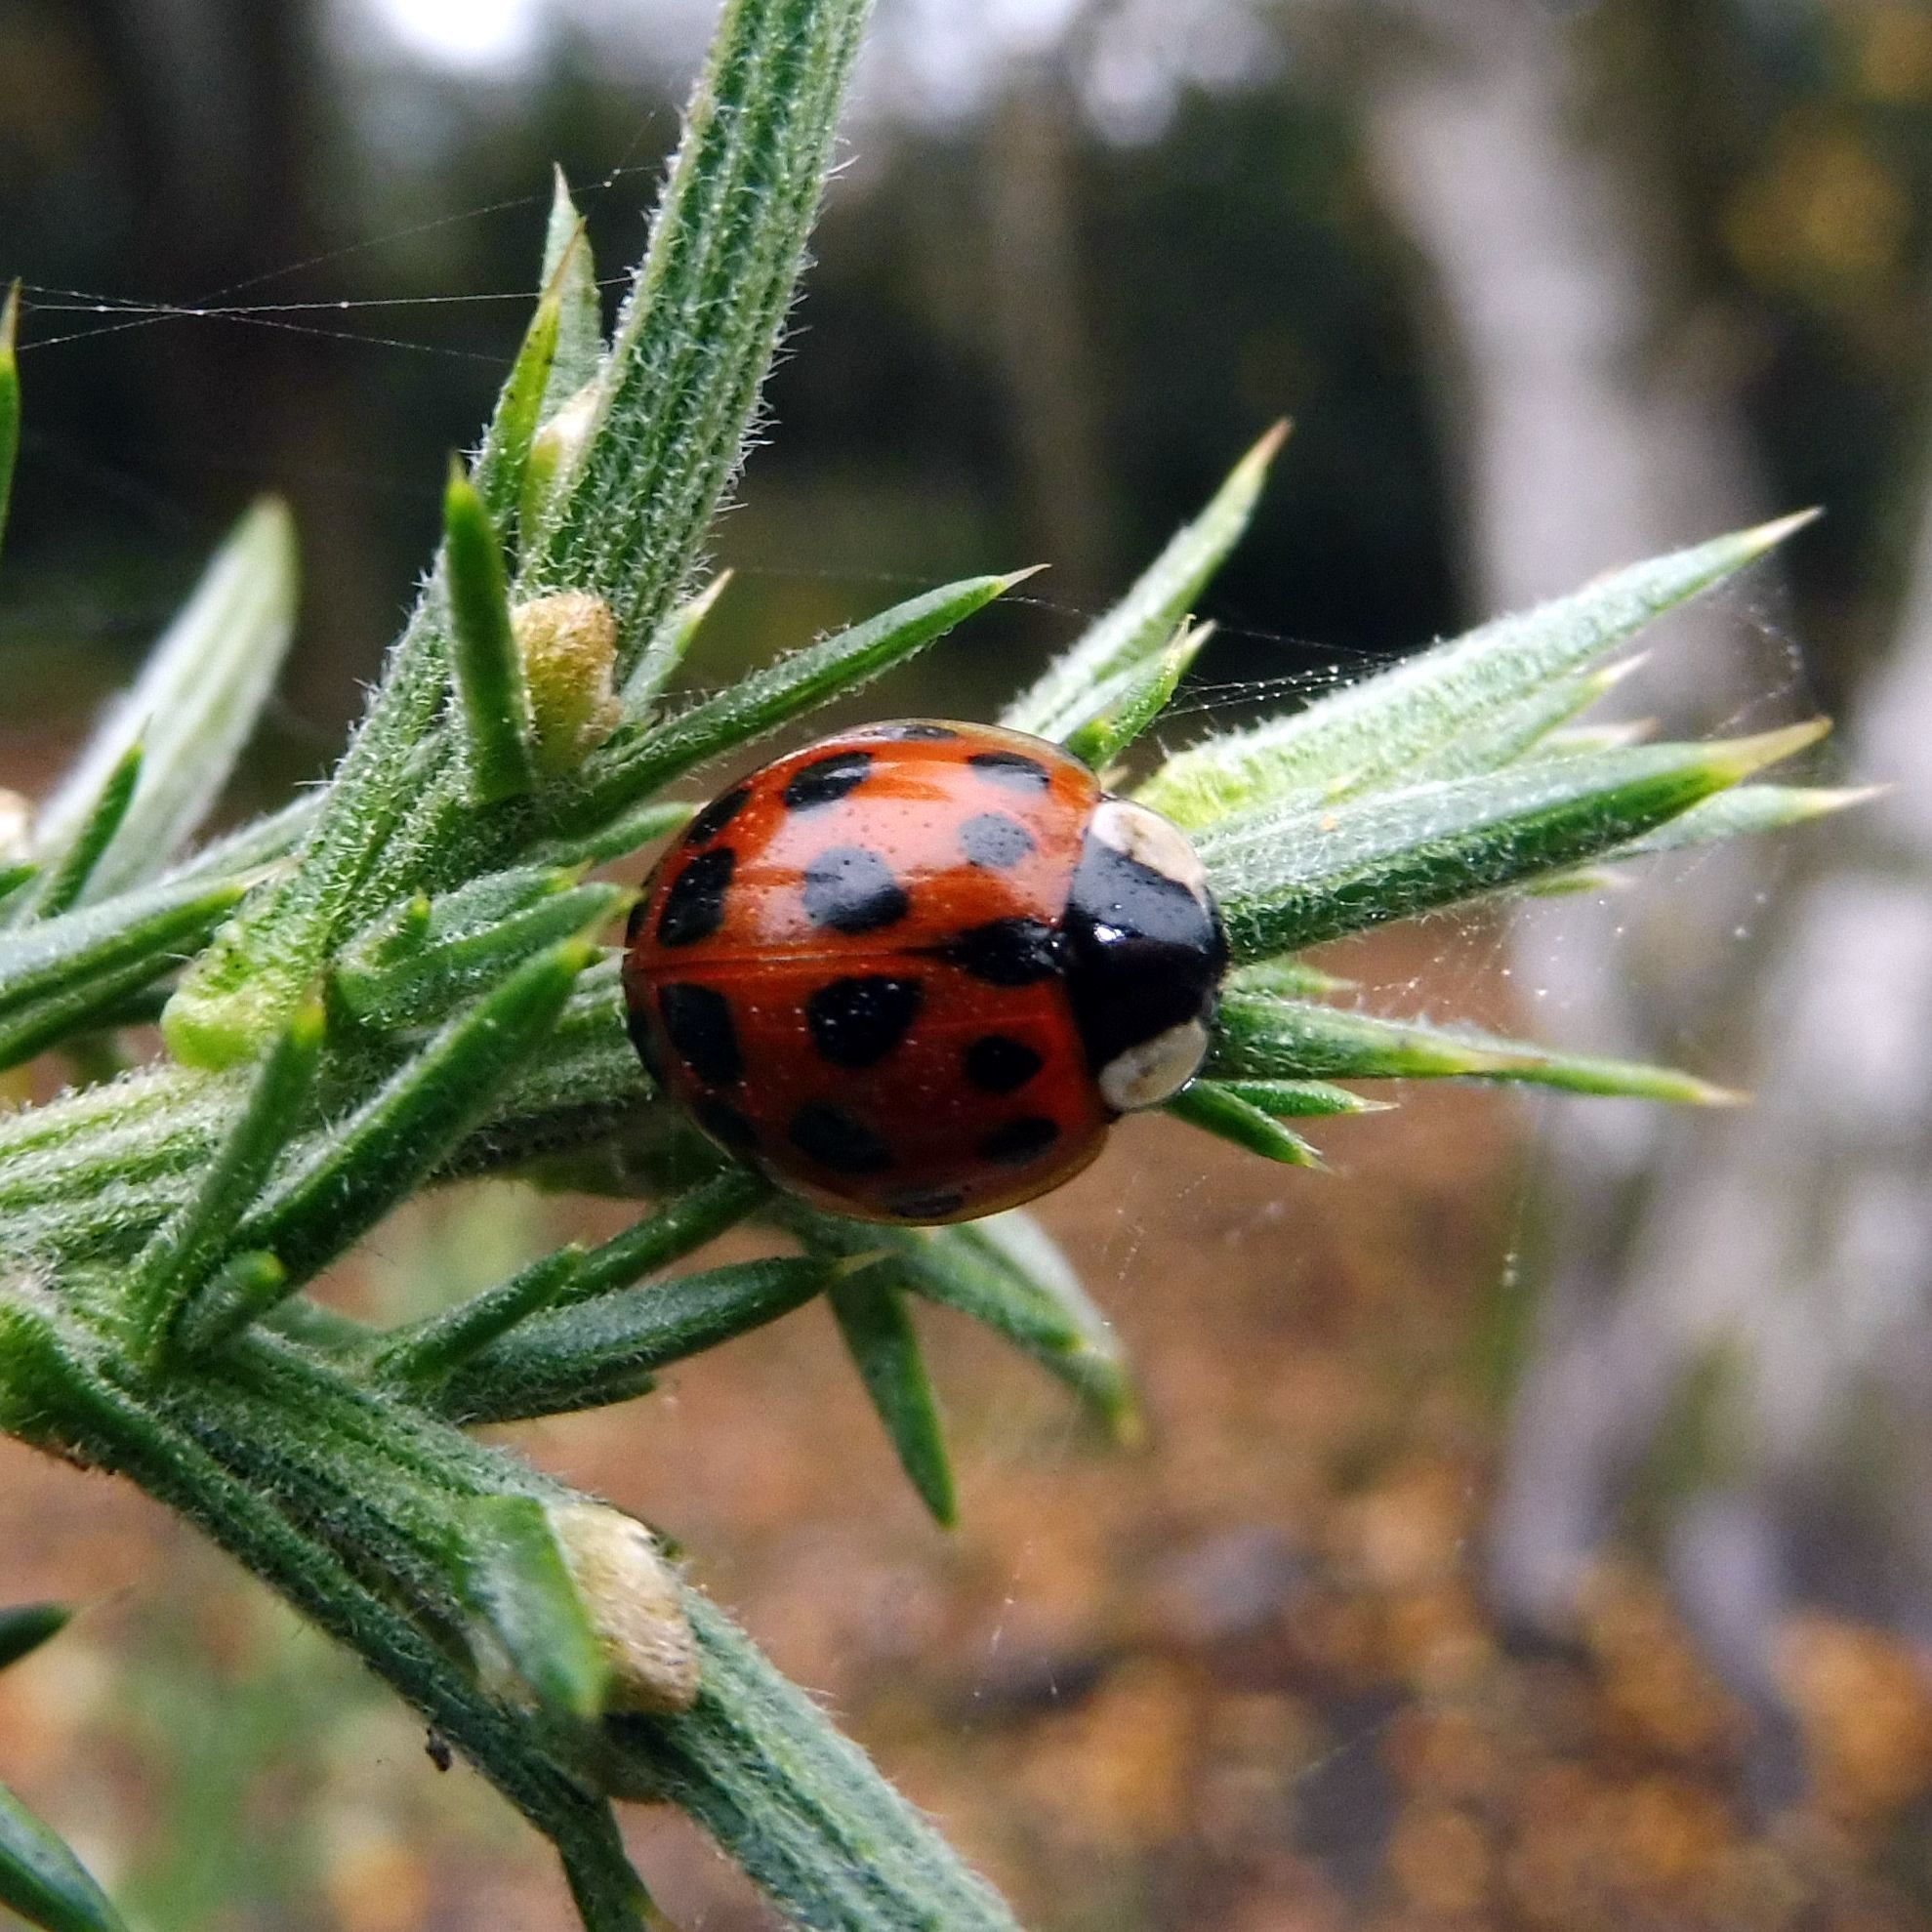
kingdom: Animalia
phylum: Arthropoda
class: Insecta
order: Coleoptera
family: Coccinellidae
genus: Harmonia
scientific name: Harmonia axyridis
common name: Harlequin ladybird
